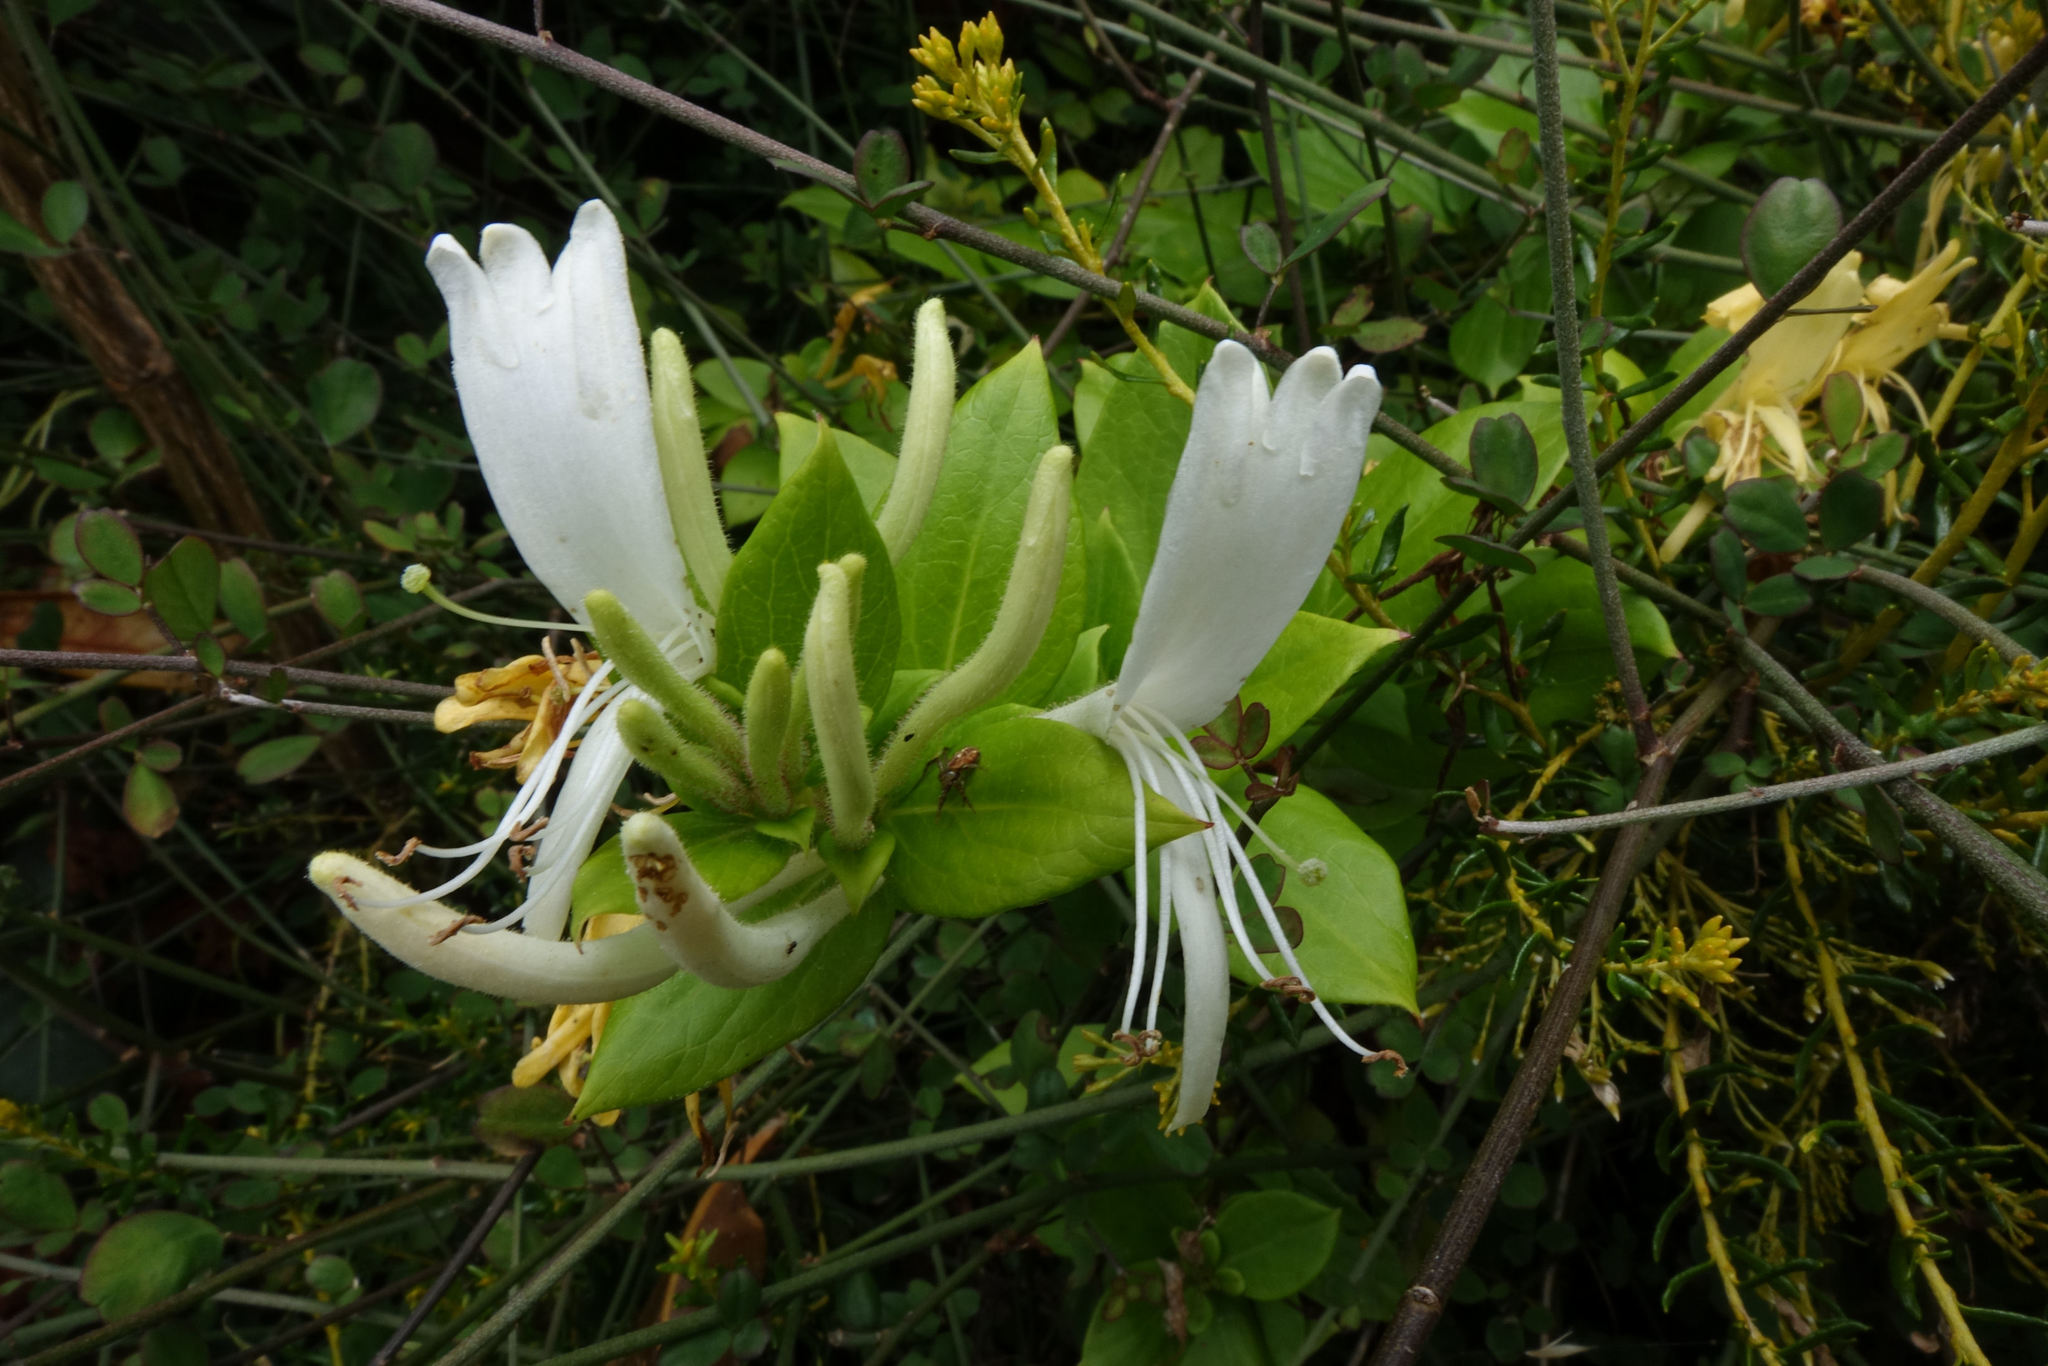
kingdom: Plantae
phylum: Tracheophyta
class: Magnoliopsida
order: Dipsacales
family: Caprifoliaceae
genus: Lonicera
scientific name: Lonicera japonica
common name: Japanese honeysuckle
